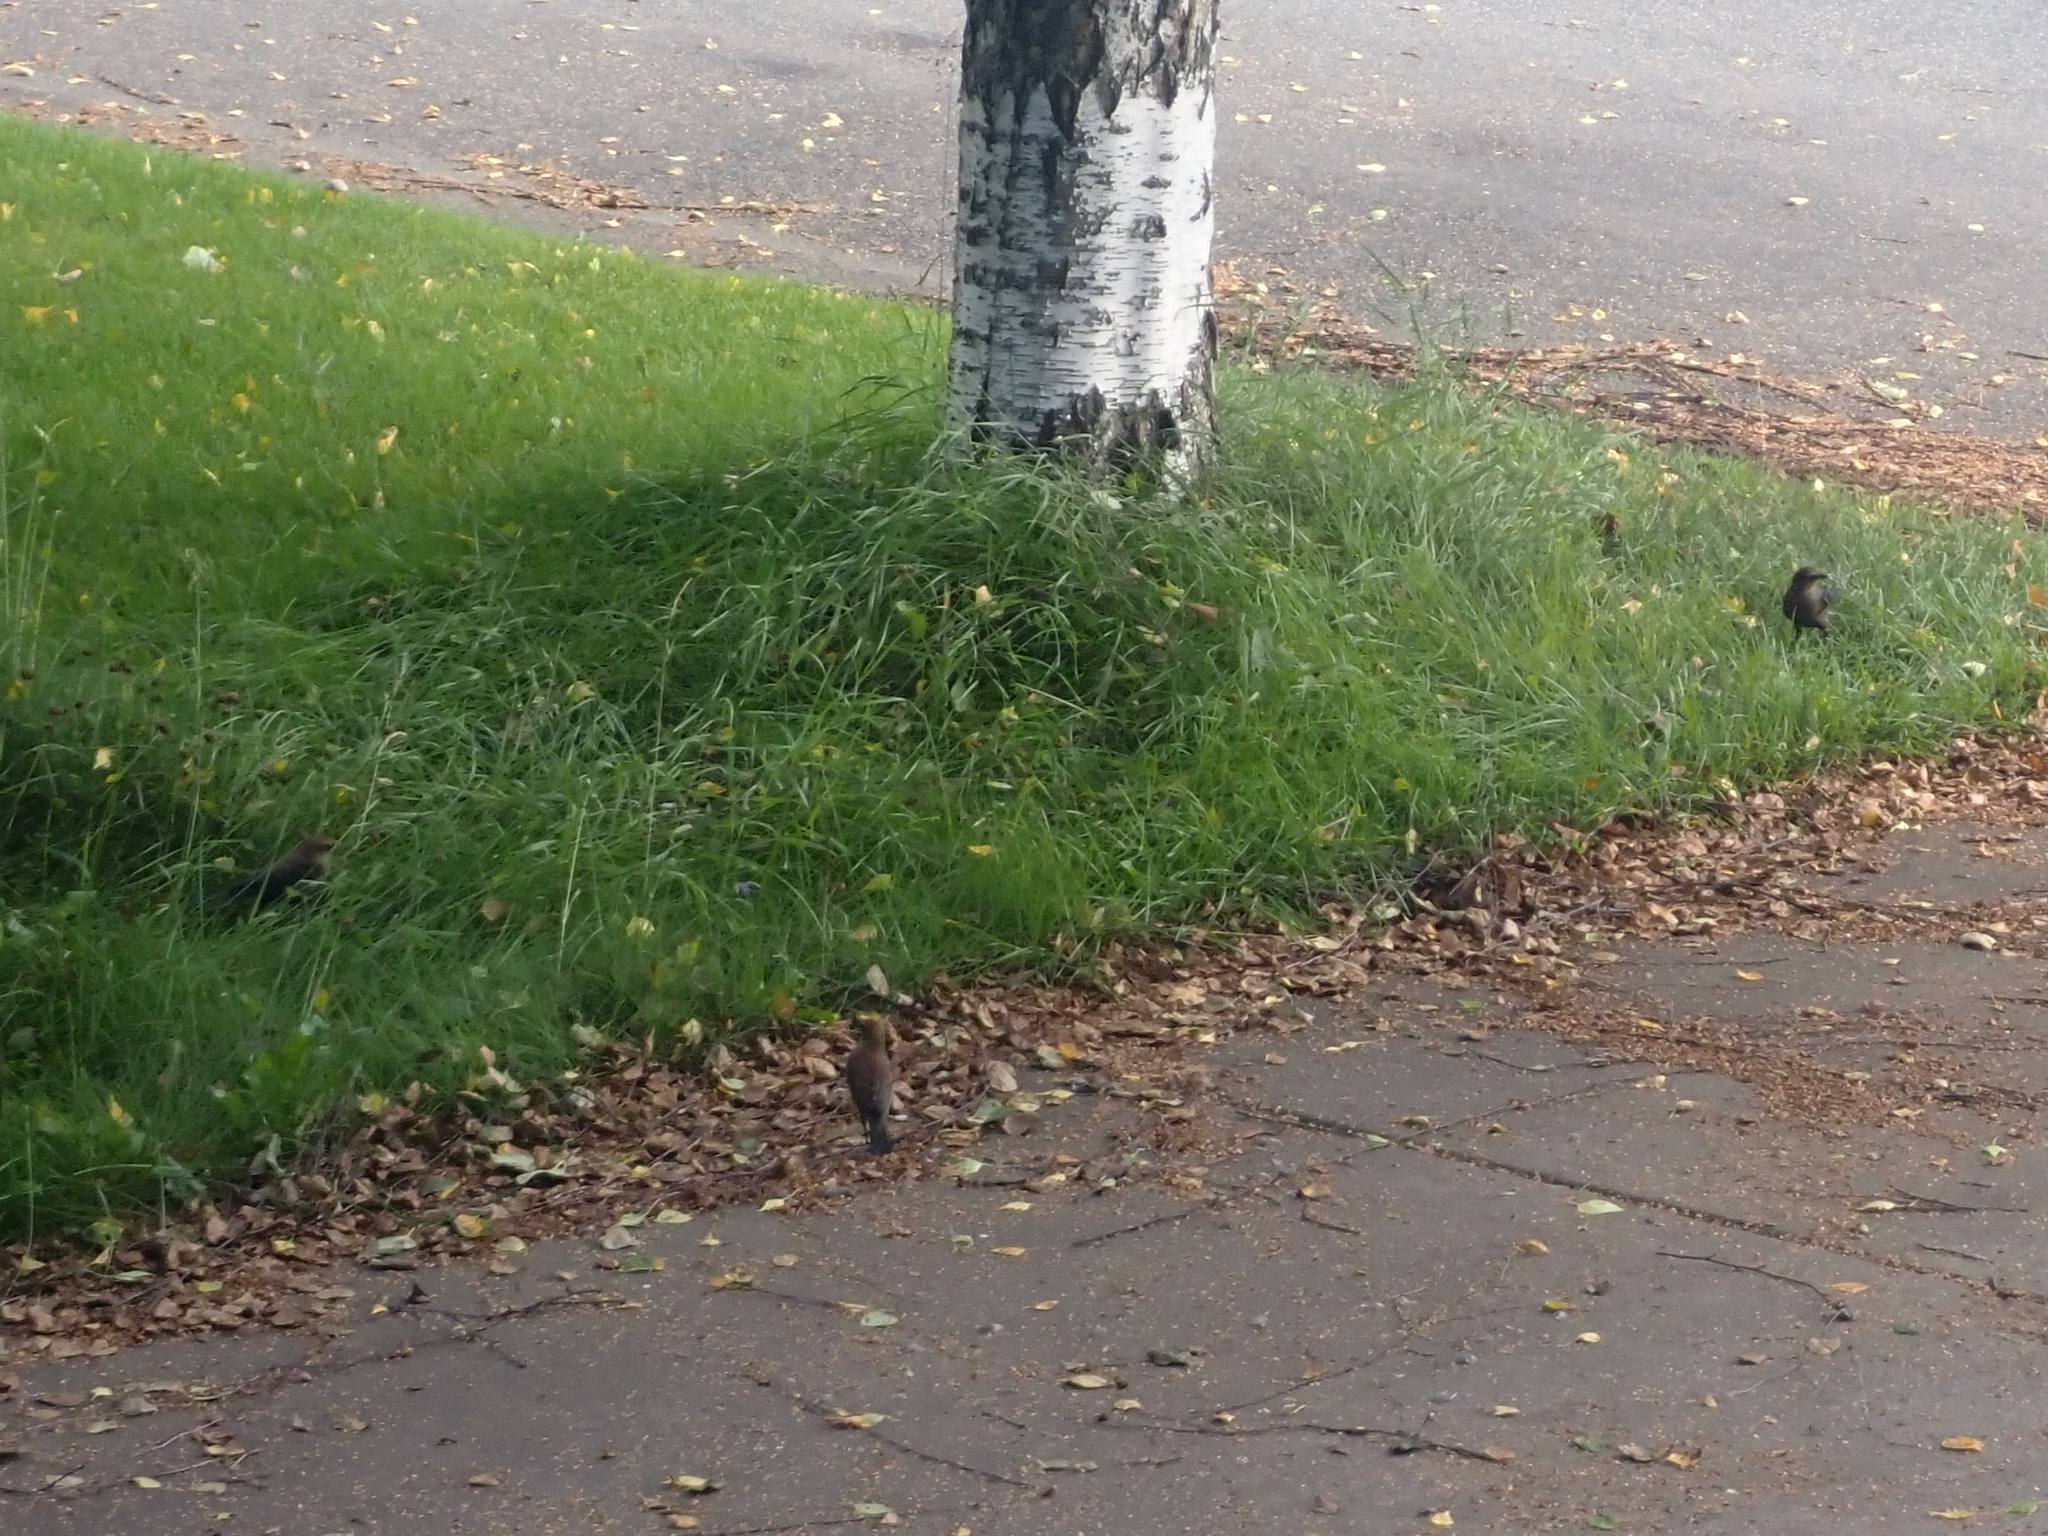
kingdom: Animalia
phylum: Chordata
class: Aves
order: Passeriformes
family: Icteridae
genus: Euphagus
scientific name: Euphagus carolinus
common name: Rusty blackbird
